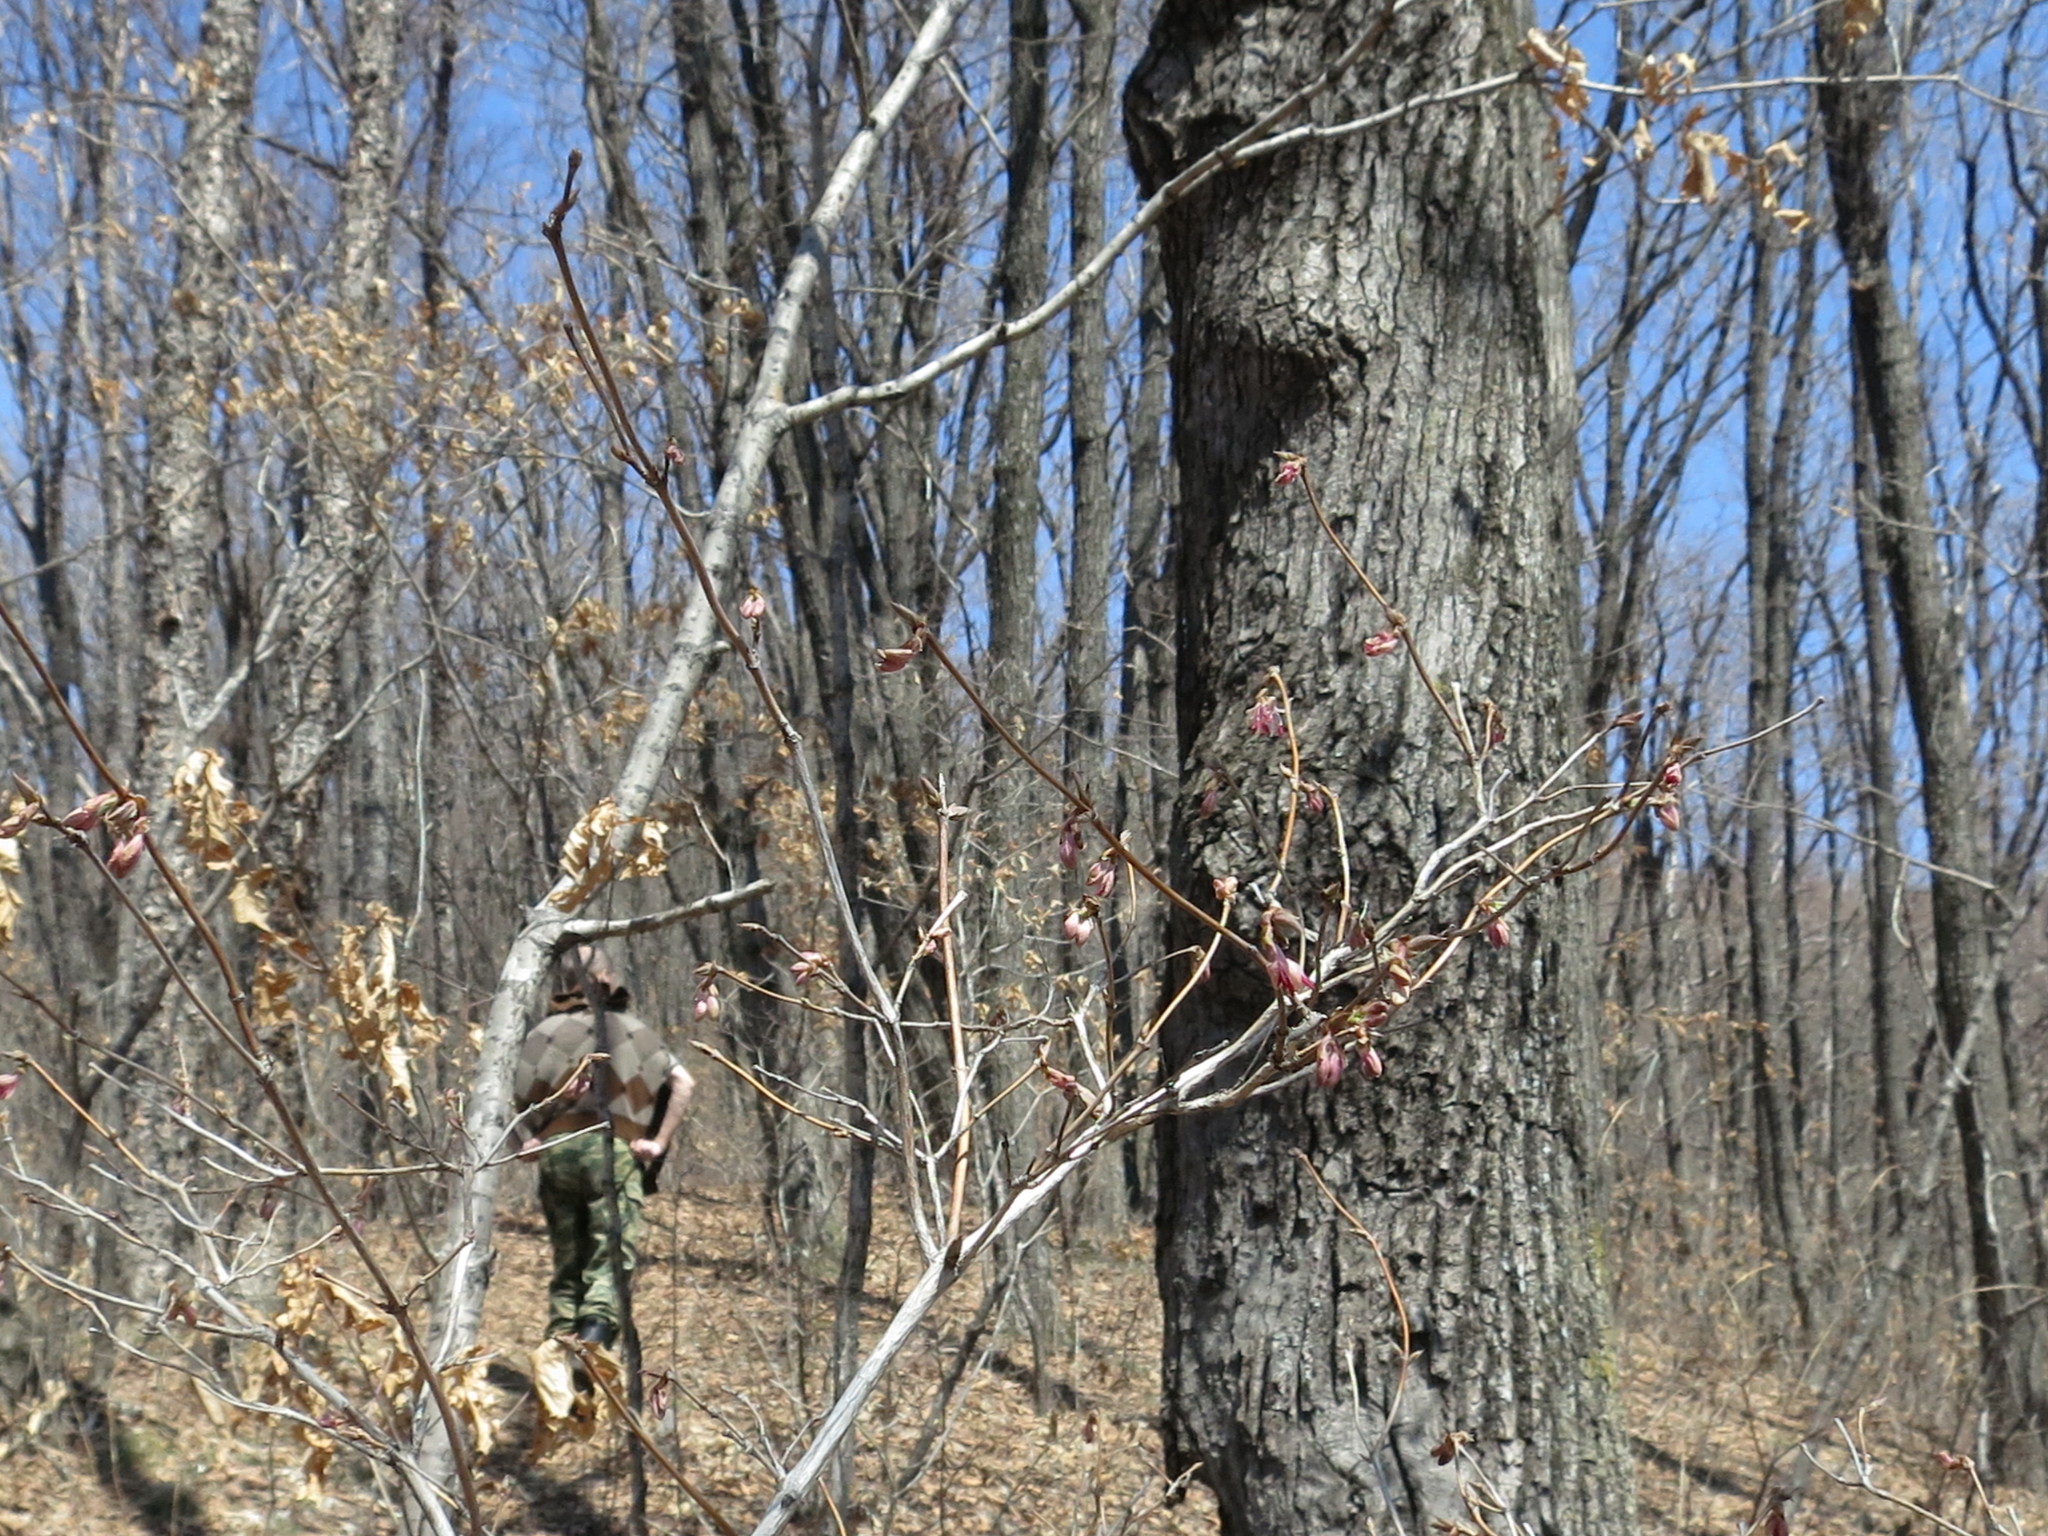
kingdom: Plantae
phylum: Tracheophyta
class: Magnoliopsida
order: Dipsacales
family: Caprifoliaceae
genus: Lonicera
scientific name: Lonicera praeflorens
